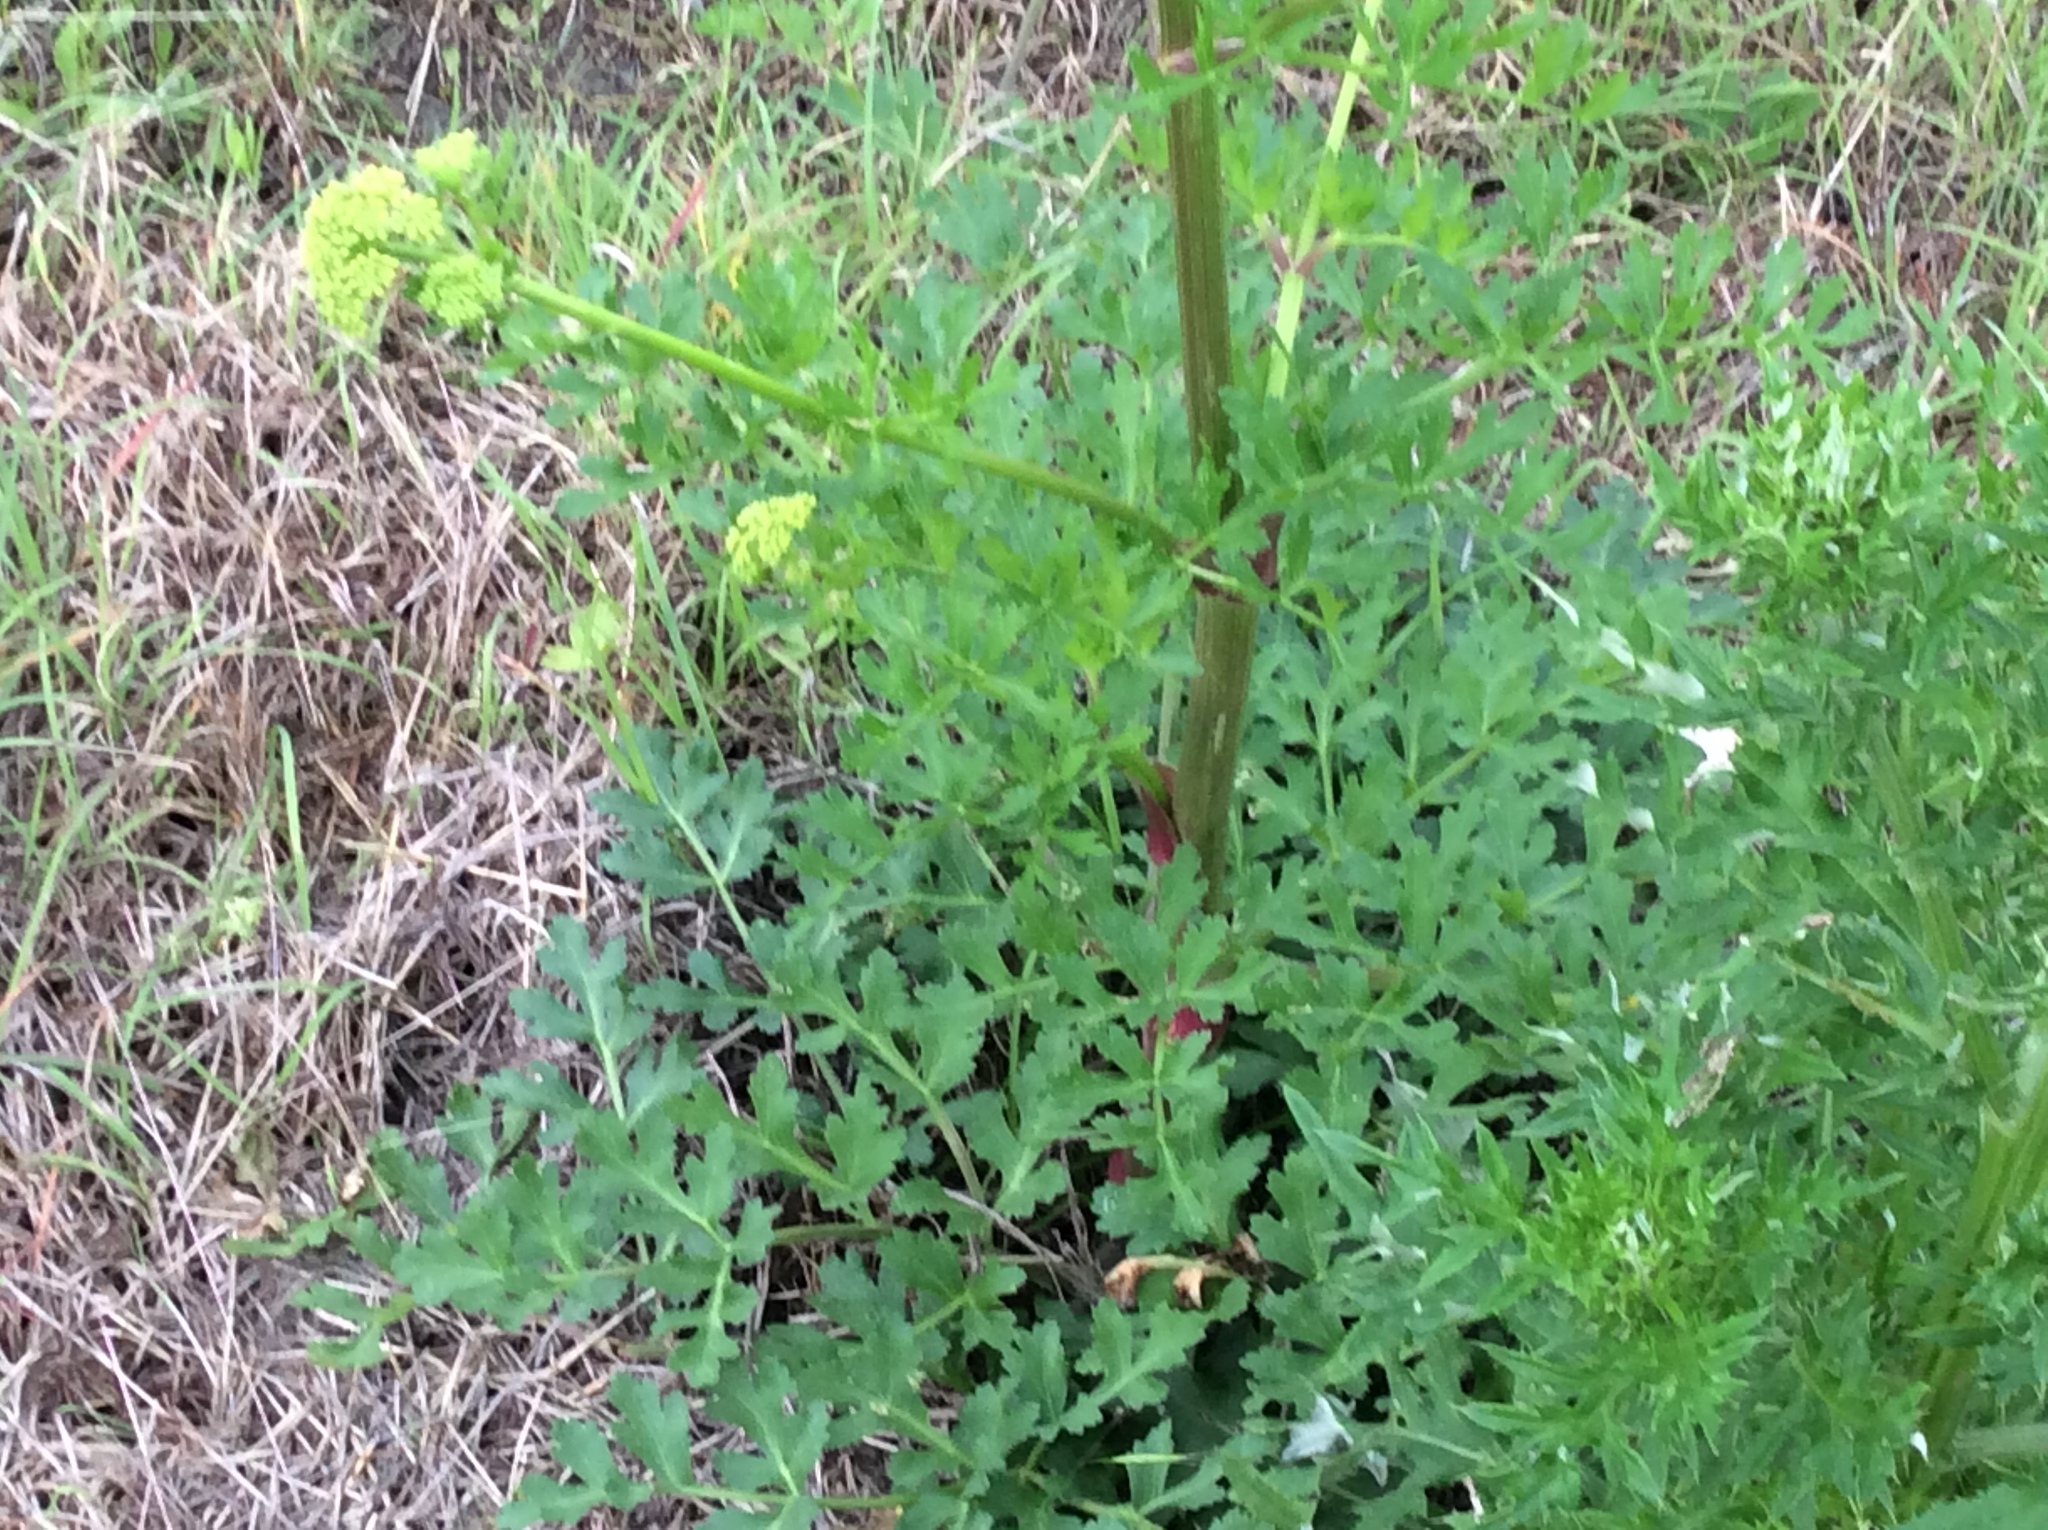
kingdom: Plantae
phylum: Tracheophyta
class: Magnoliopsida
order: Apiales
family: Apiaceae
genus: Polytaenia
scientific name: Polytaenia texana
